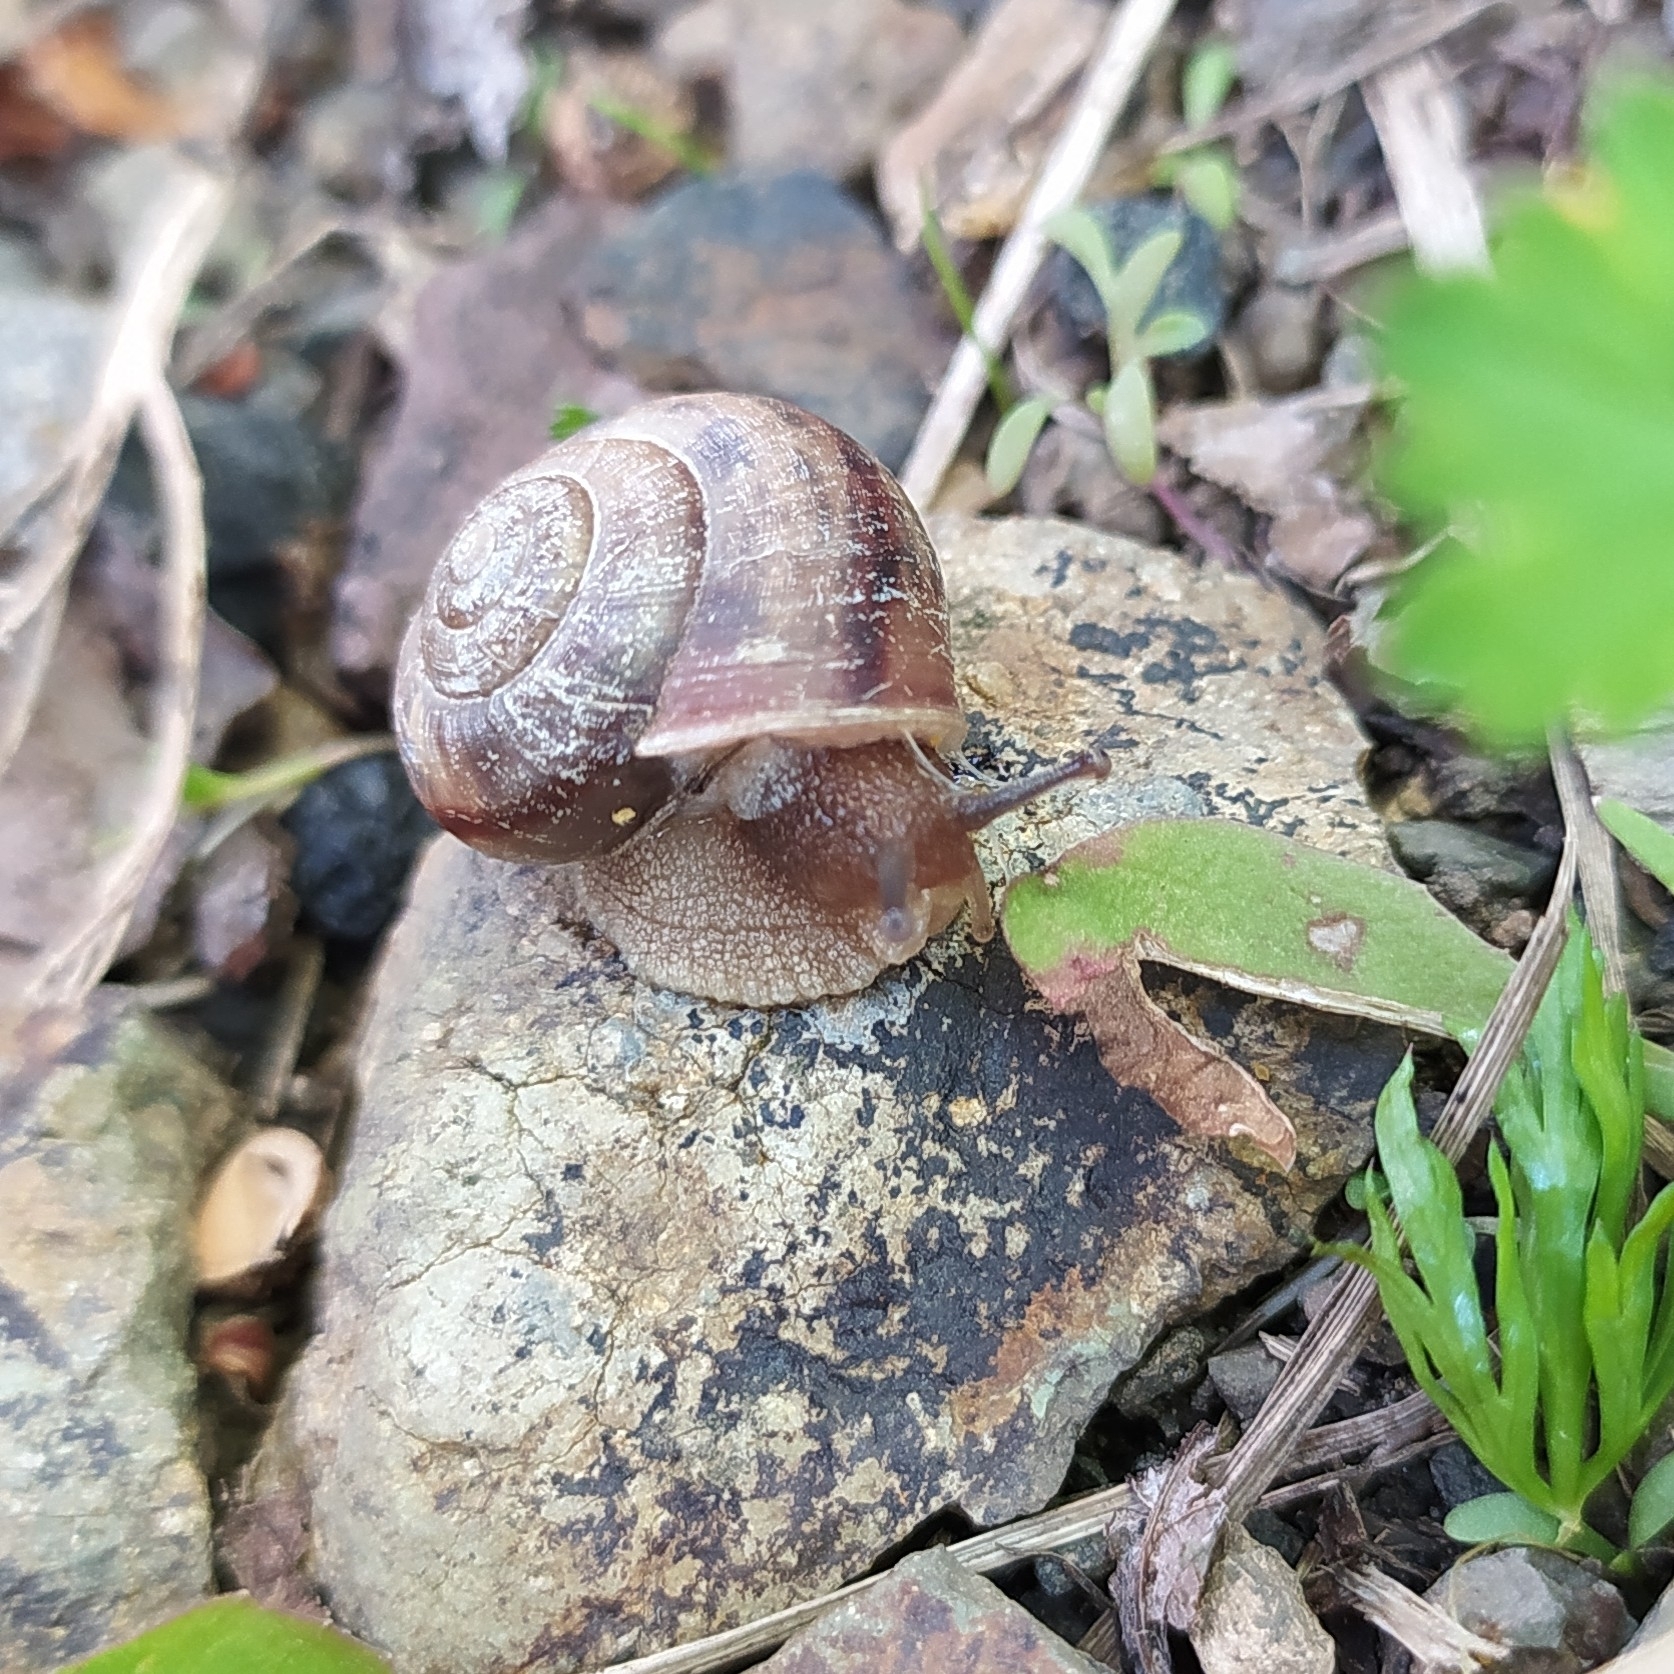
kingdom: Animalia
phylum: Mollusca
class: Gastropoda
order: Stylommatophora
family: Camaenidae
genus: Fruticicola
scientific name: Fruticicola fruticum
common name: Bush snail
